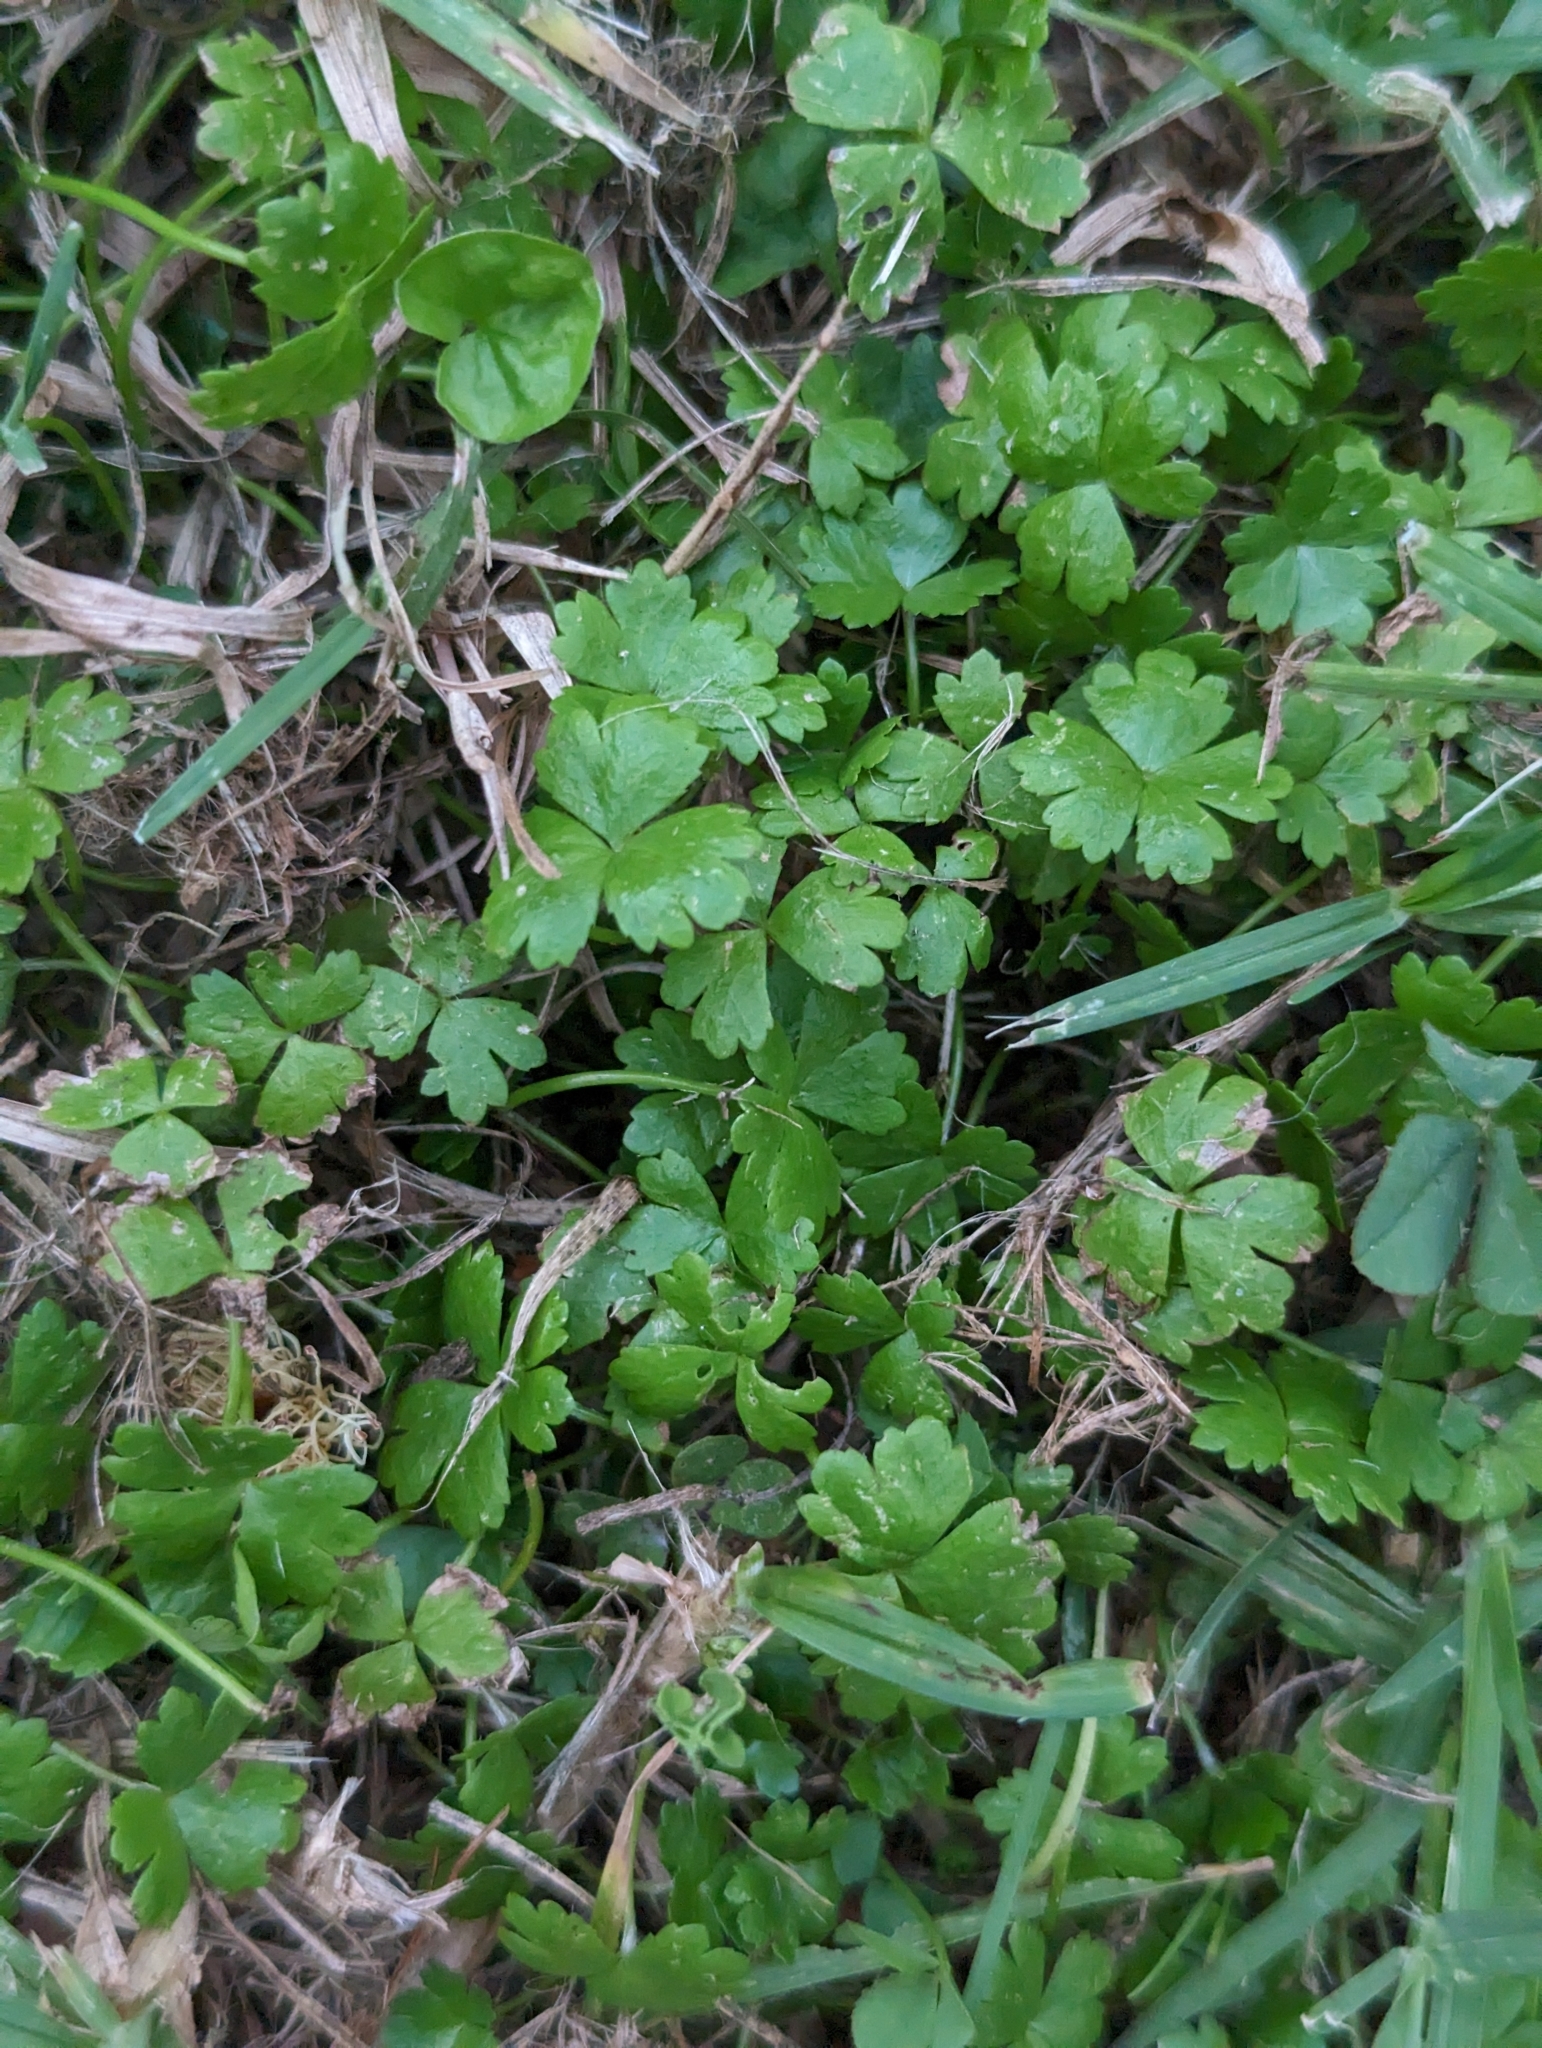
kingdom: Plantae
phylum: Tracheophyta
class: Magnoliopsida
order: Apiales
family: Araliaceae
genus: Hydrocotyle
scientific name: Hydrocotyle tripartita
